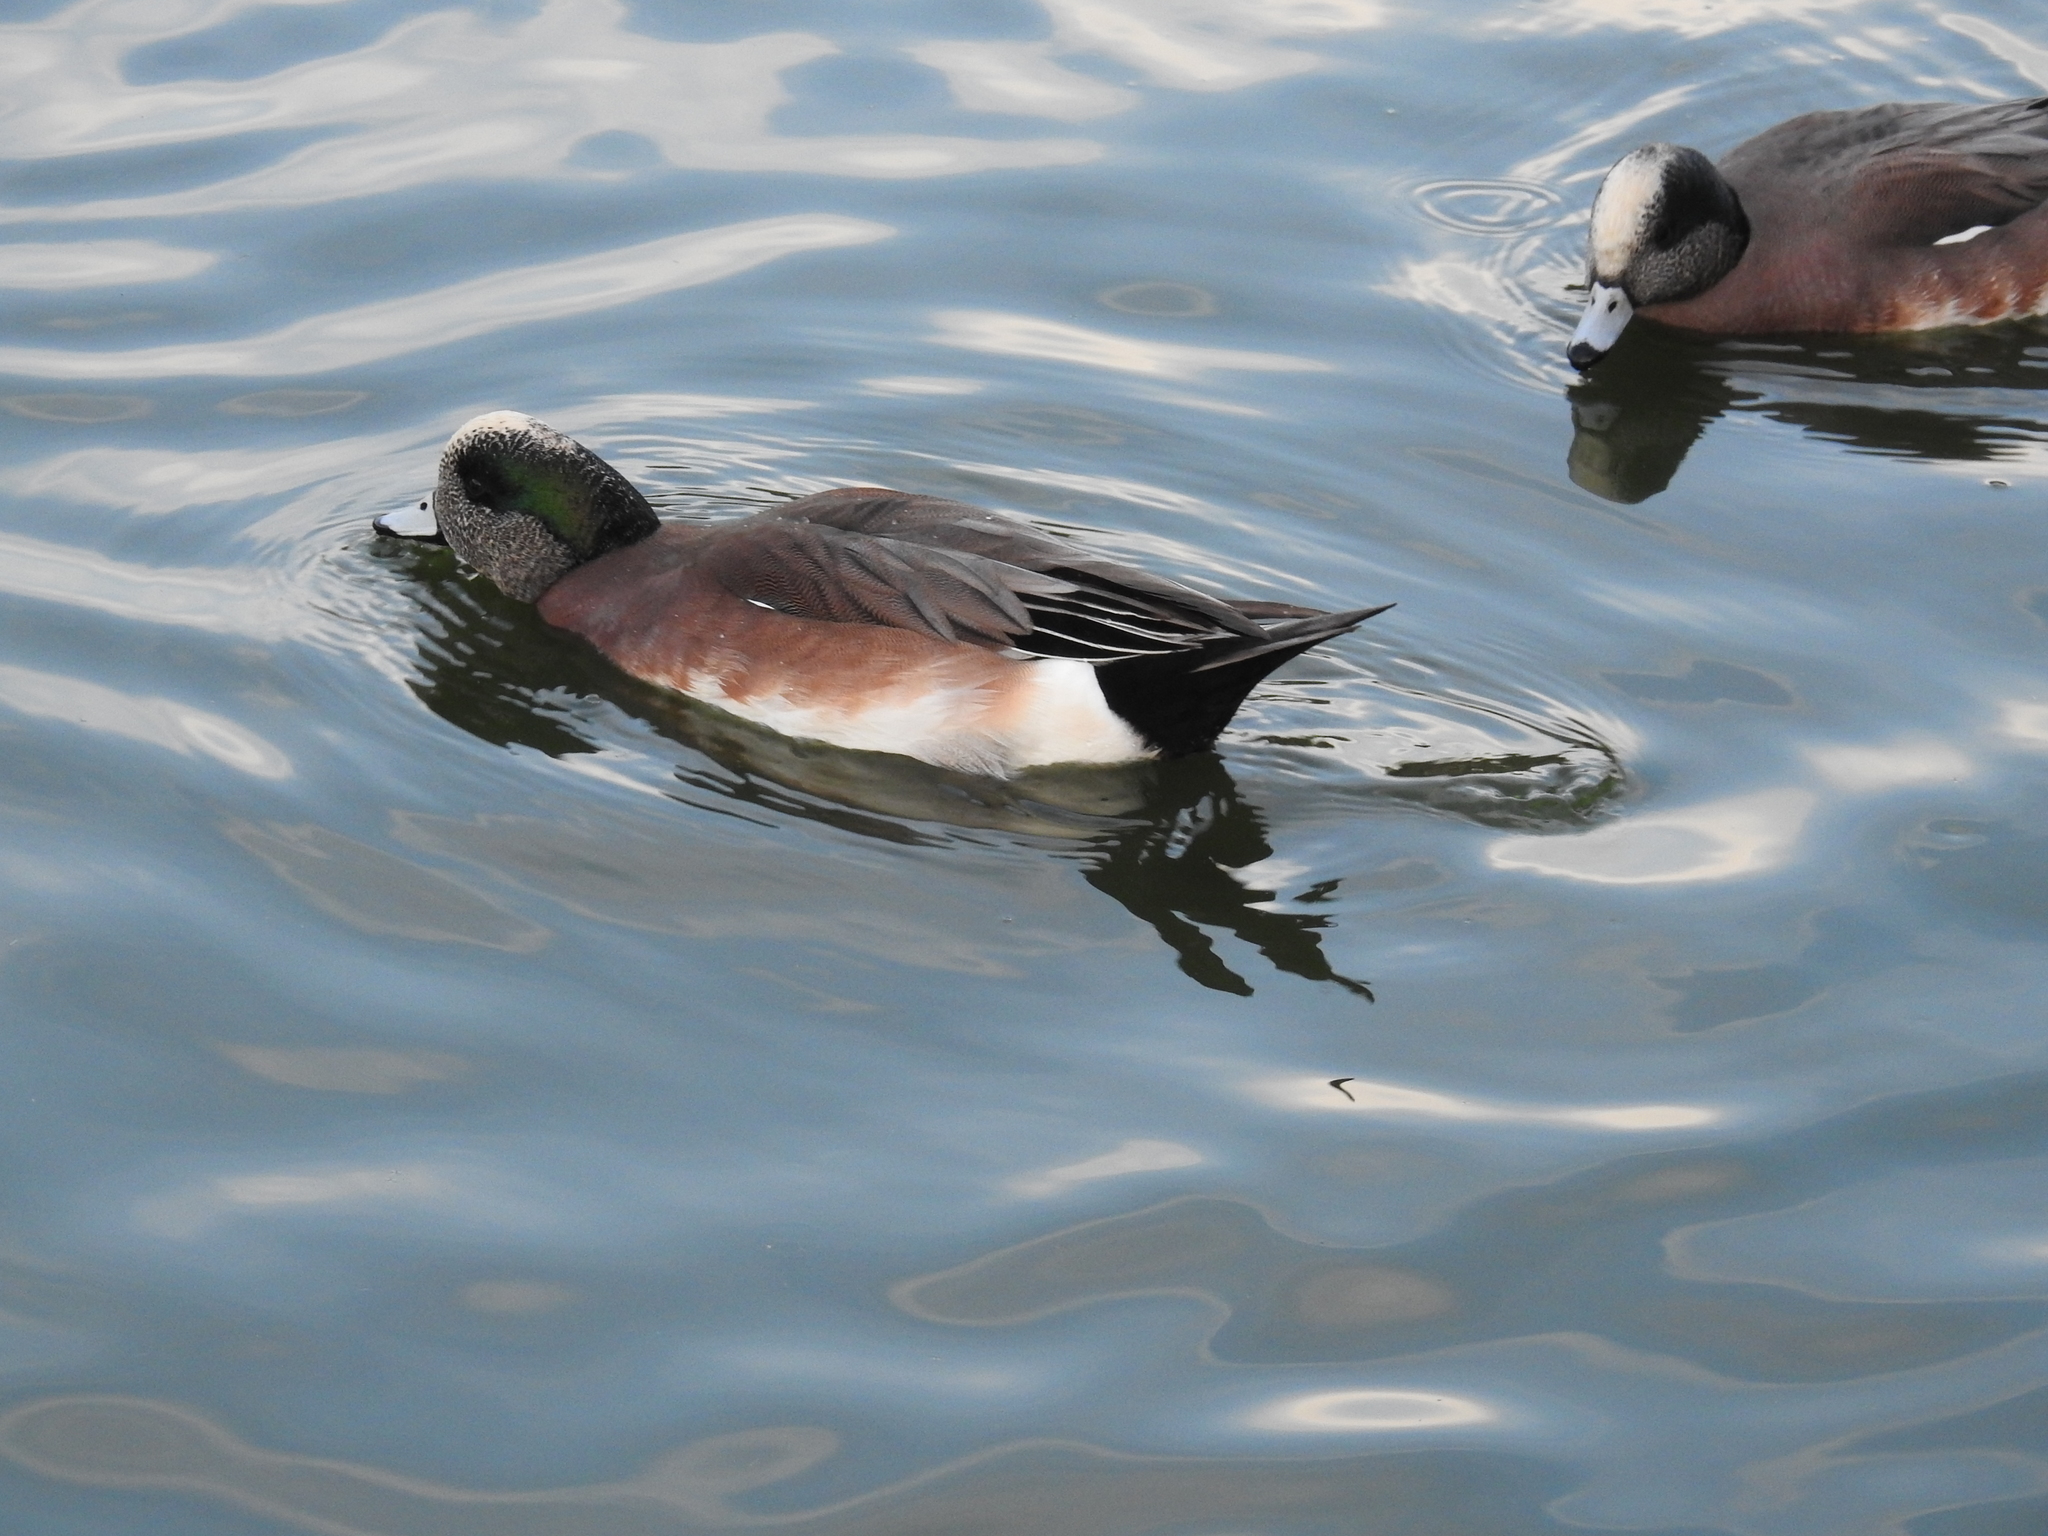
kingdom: Animalia
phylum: Chordata
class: Aves
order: Anseriformes
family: Anatidae
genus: Mareca
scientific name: Mareca americana
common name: American wigeon
